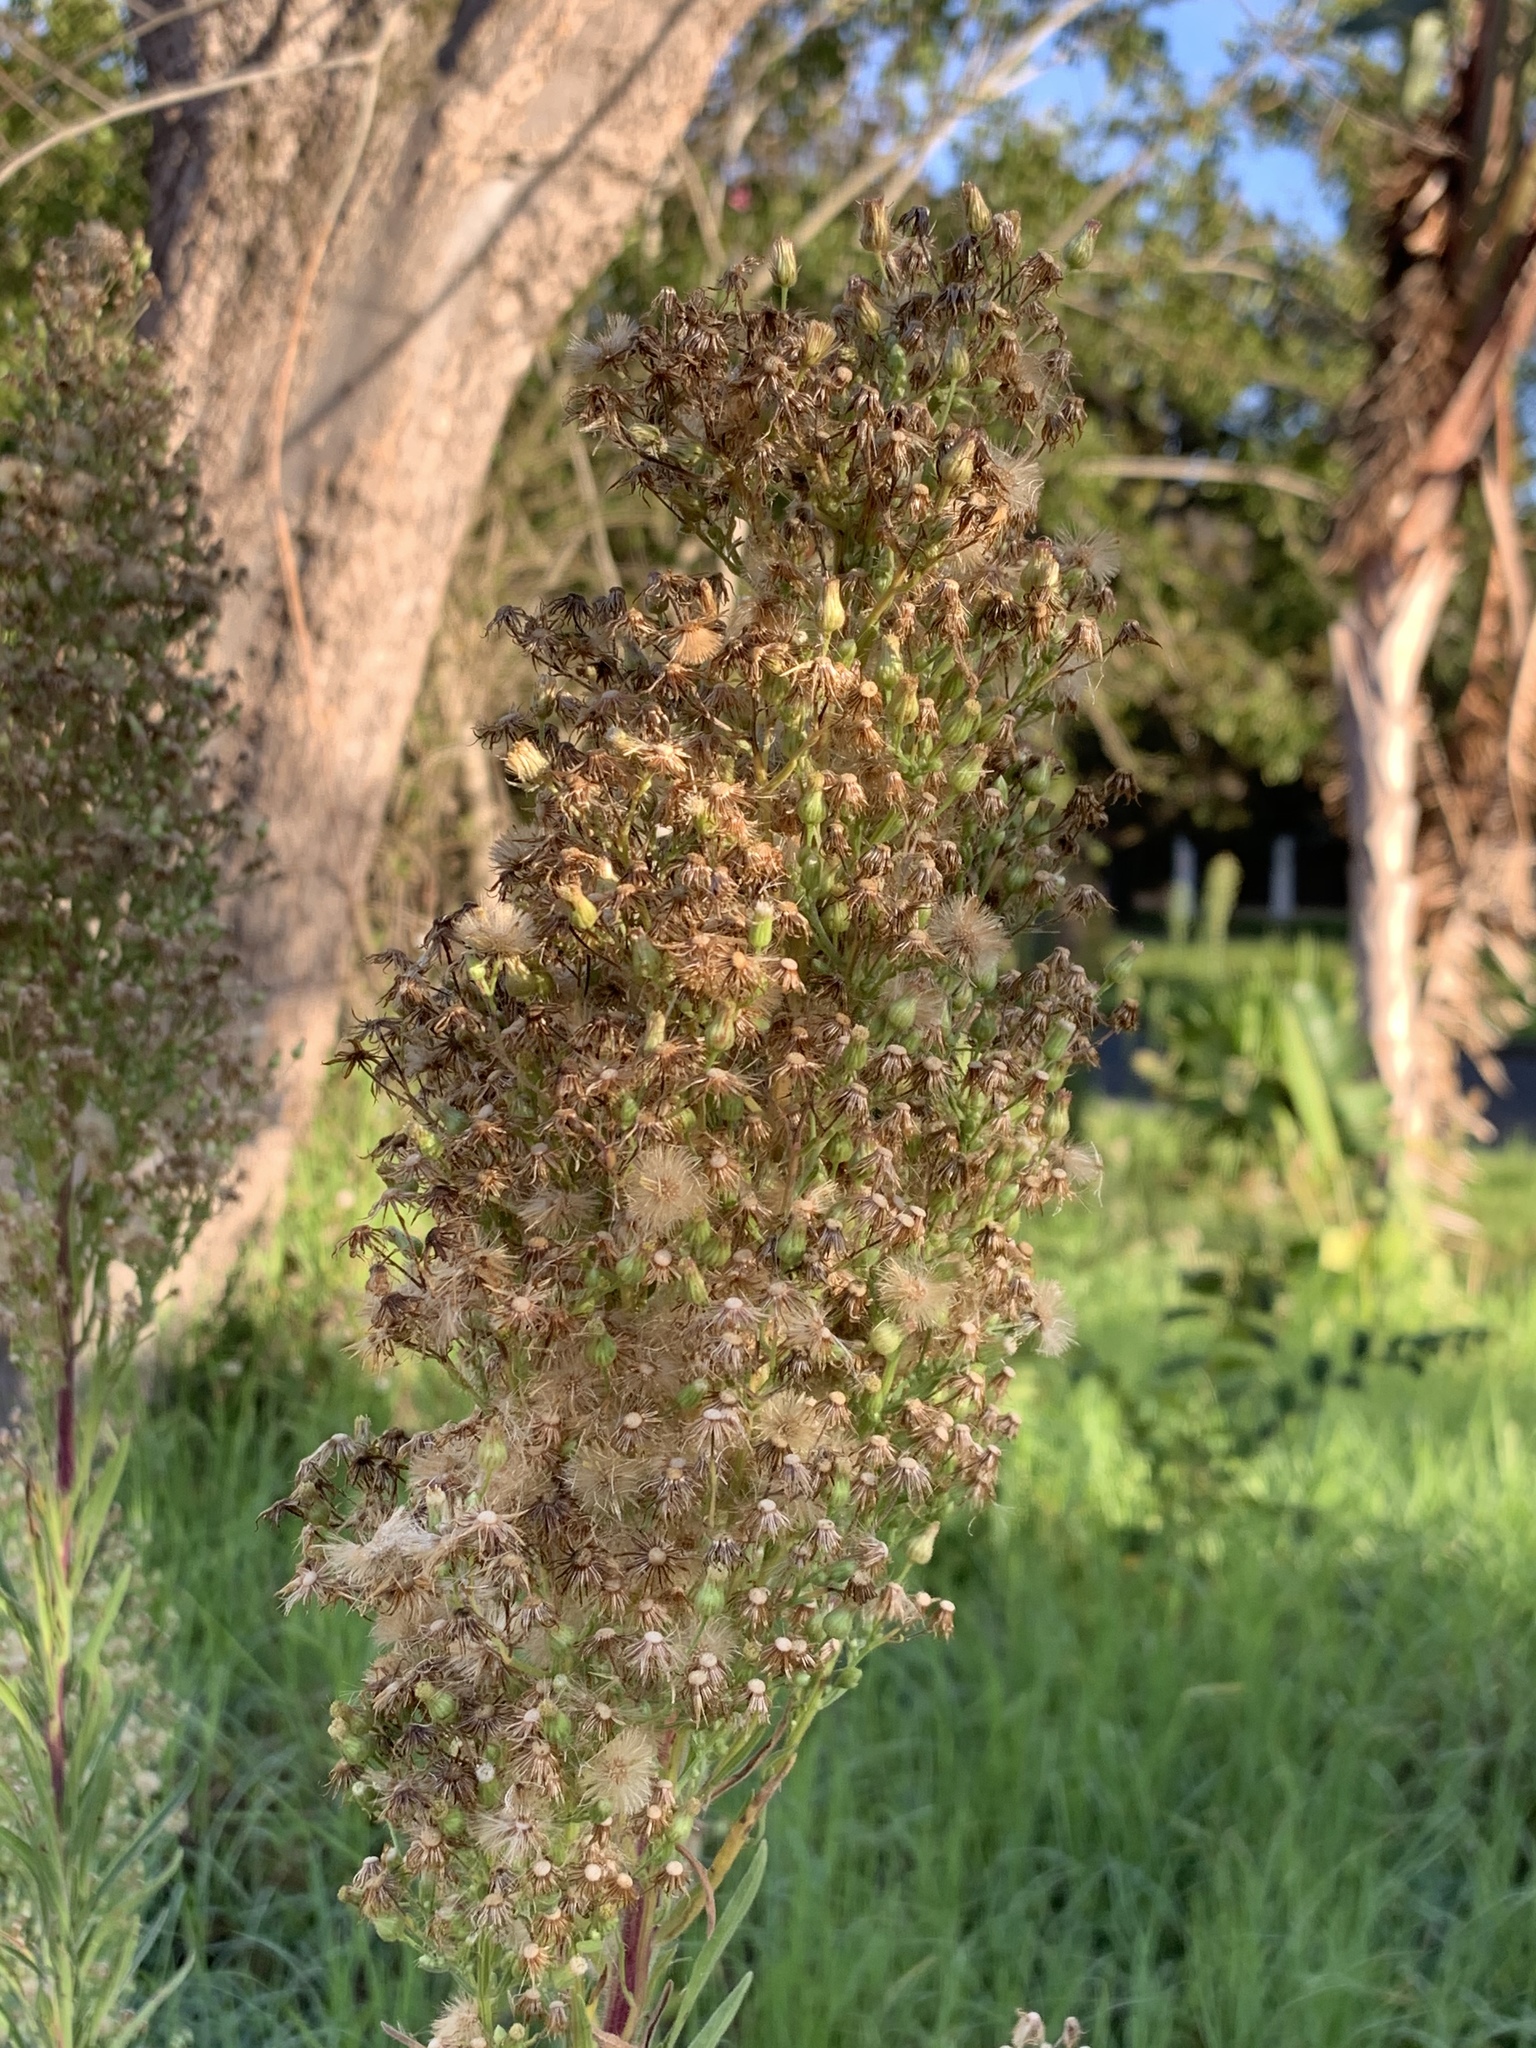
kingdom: Plantae
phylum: Tracheophyta
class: Magnoliopsida
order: Asterales
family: Asteraceae
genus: Erigeron
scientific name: Erigeron sumatrensis
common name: Daisy
